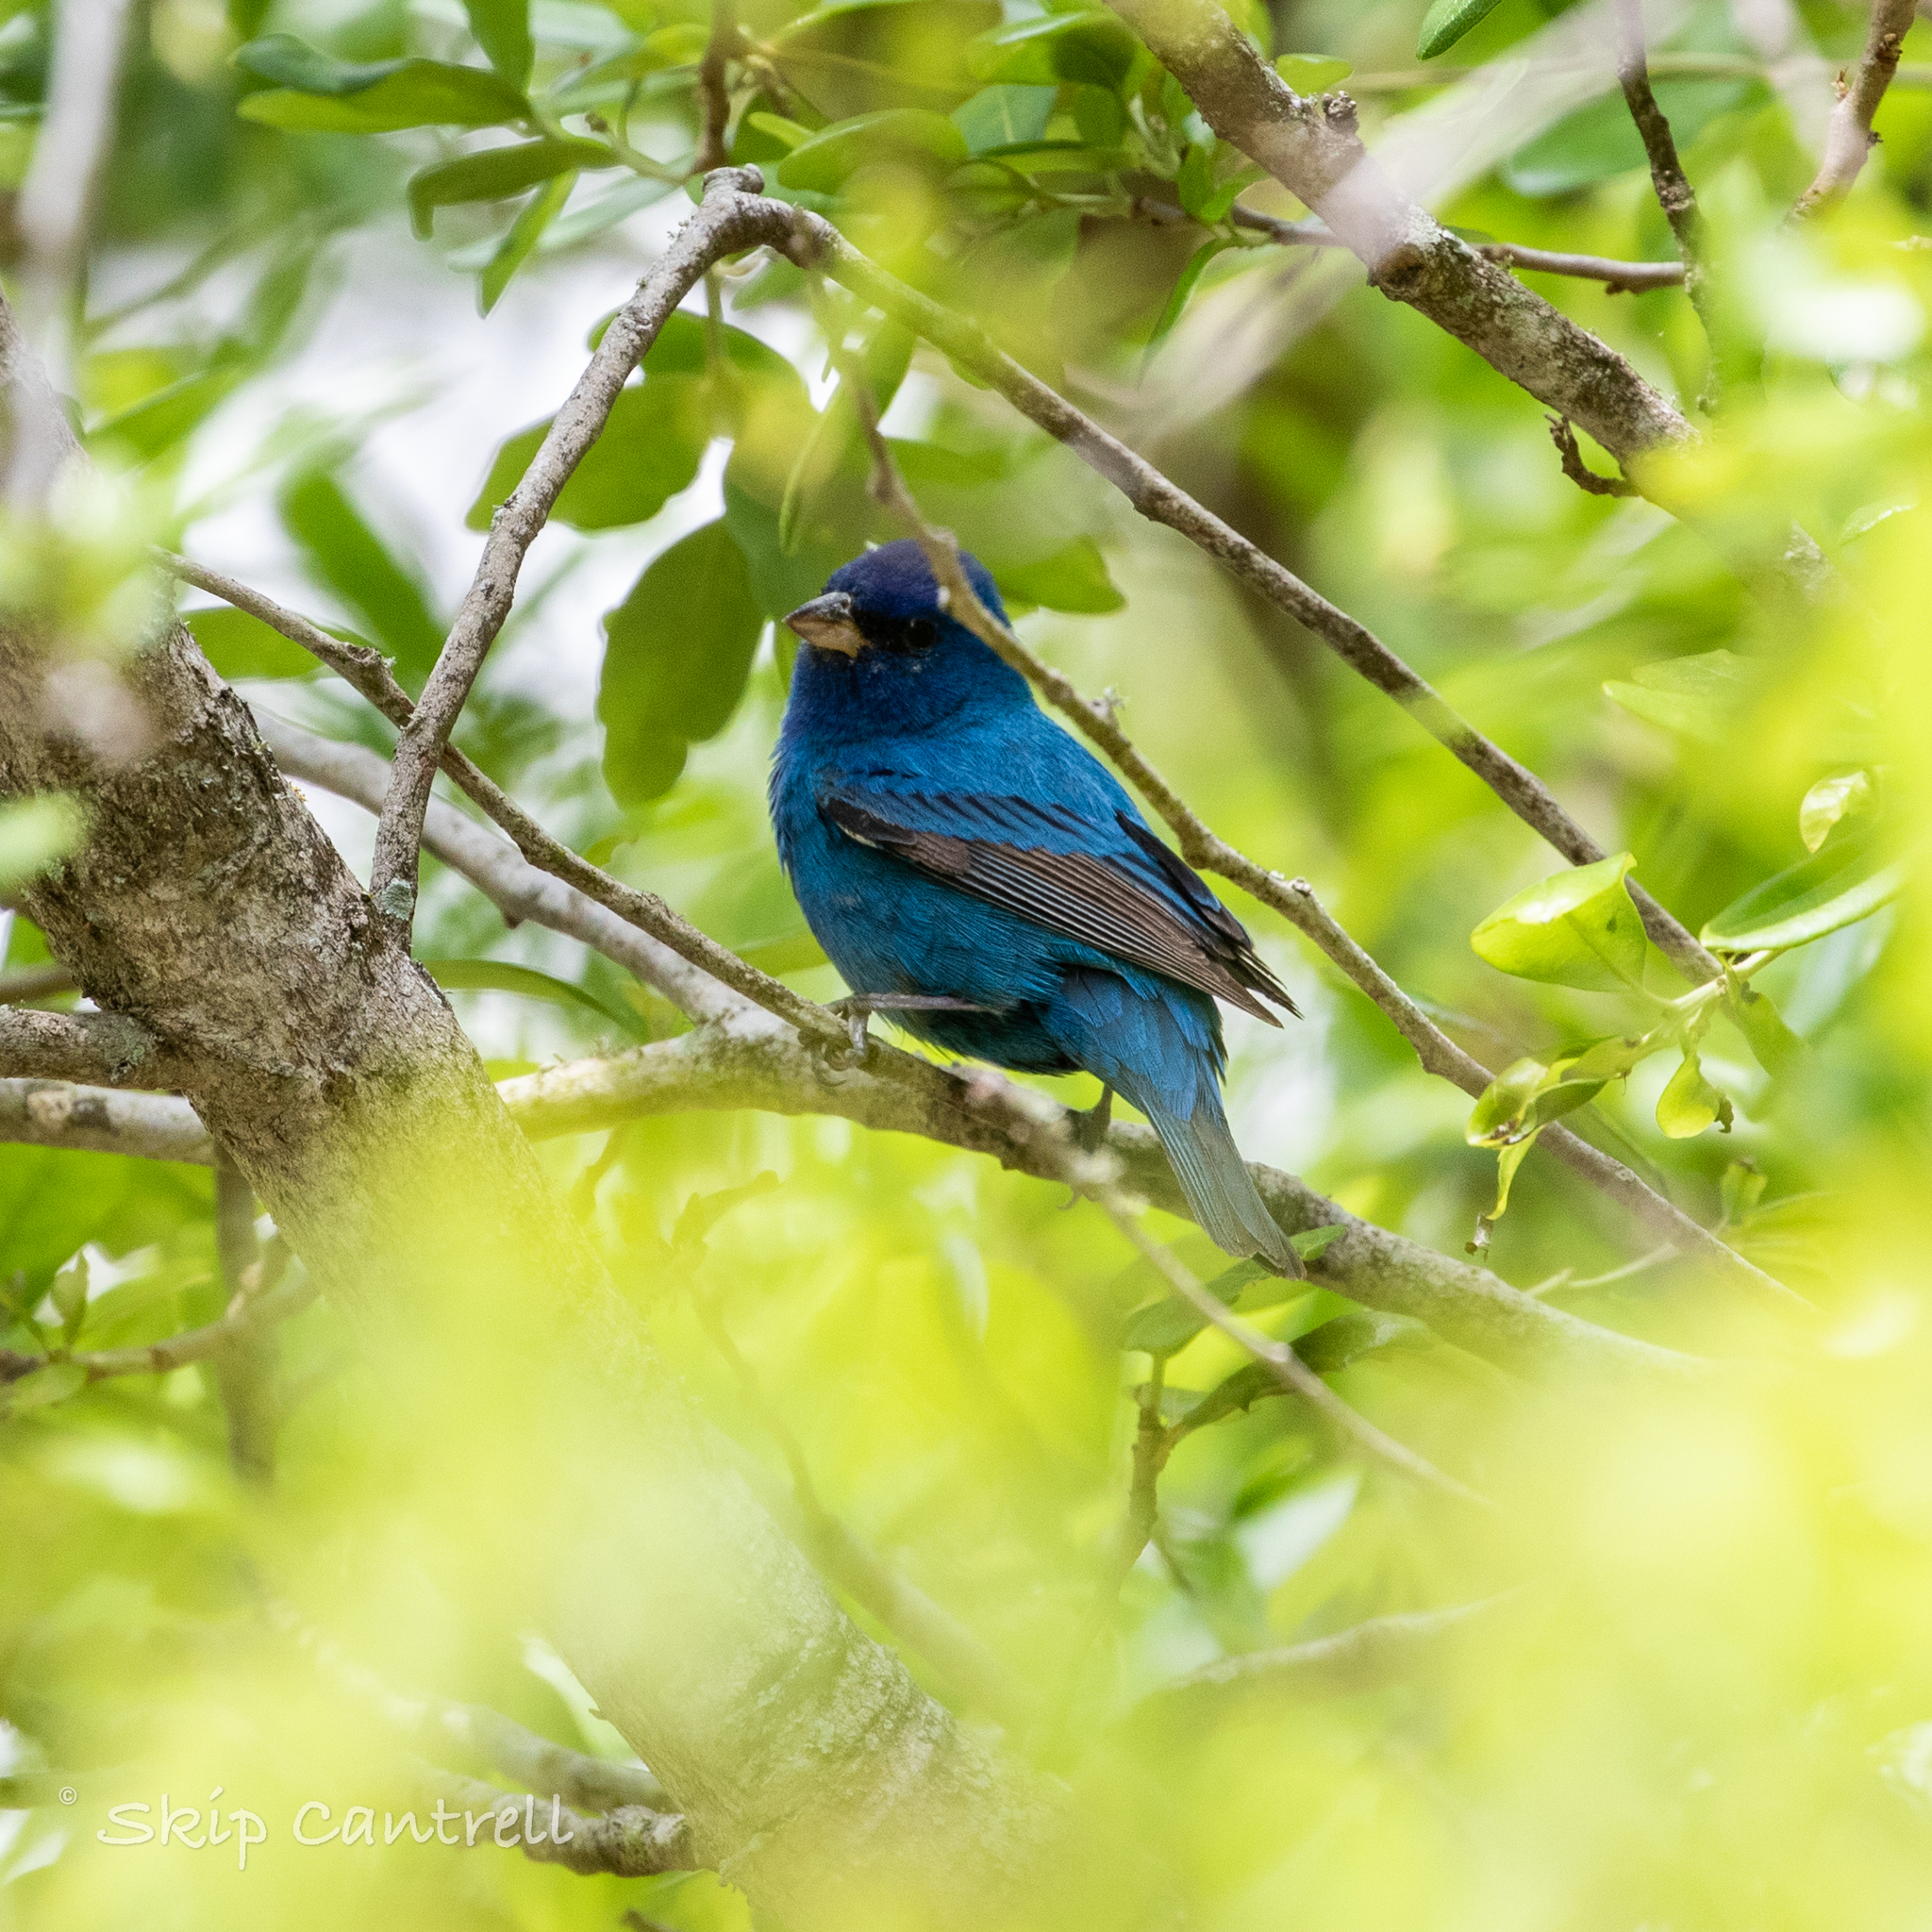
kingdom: Animalia
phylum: Chordata
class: Aves
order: Passeriformes
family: Cardinalidae
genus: Passerina
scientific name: Passerina cyanea
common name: Indigo bunting
